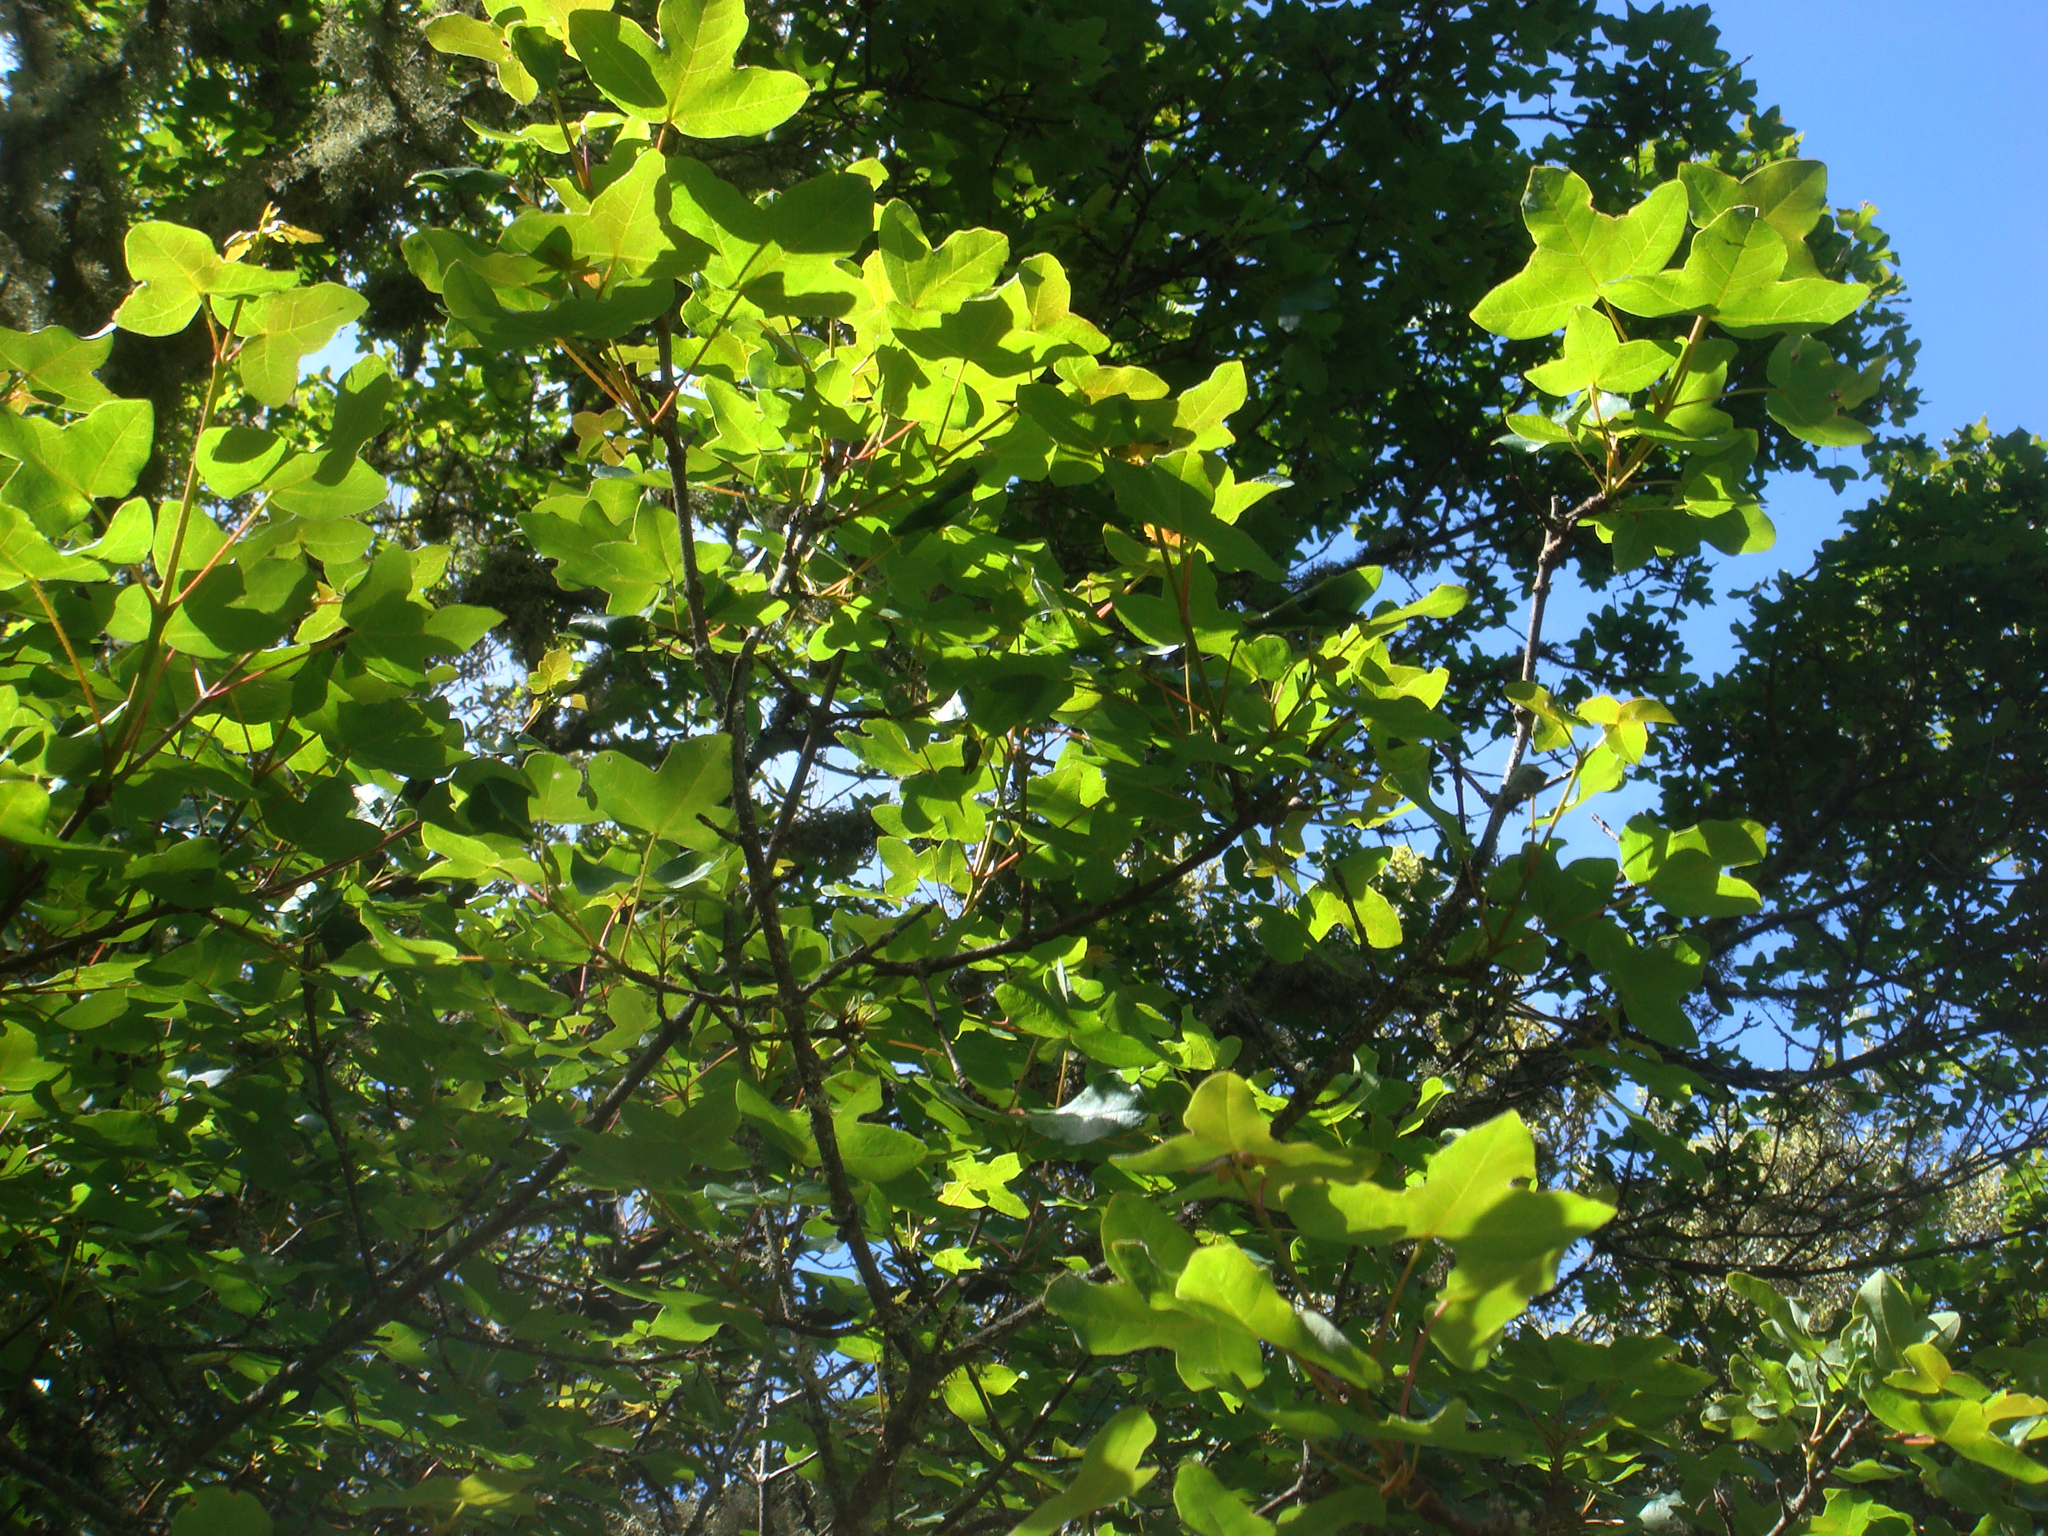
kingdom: Plantae
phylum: Tracheophyta
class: Magnoliopsida
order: Sapindales
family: Sapindaceae
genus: Acer
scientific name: Acer monspessulanum
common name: Montpellier maple
